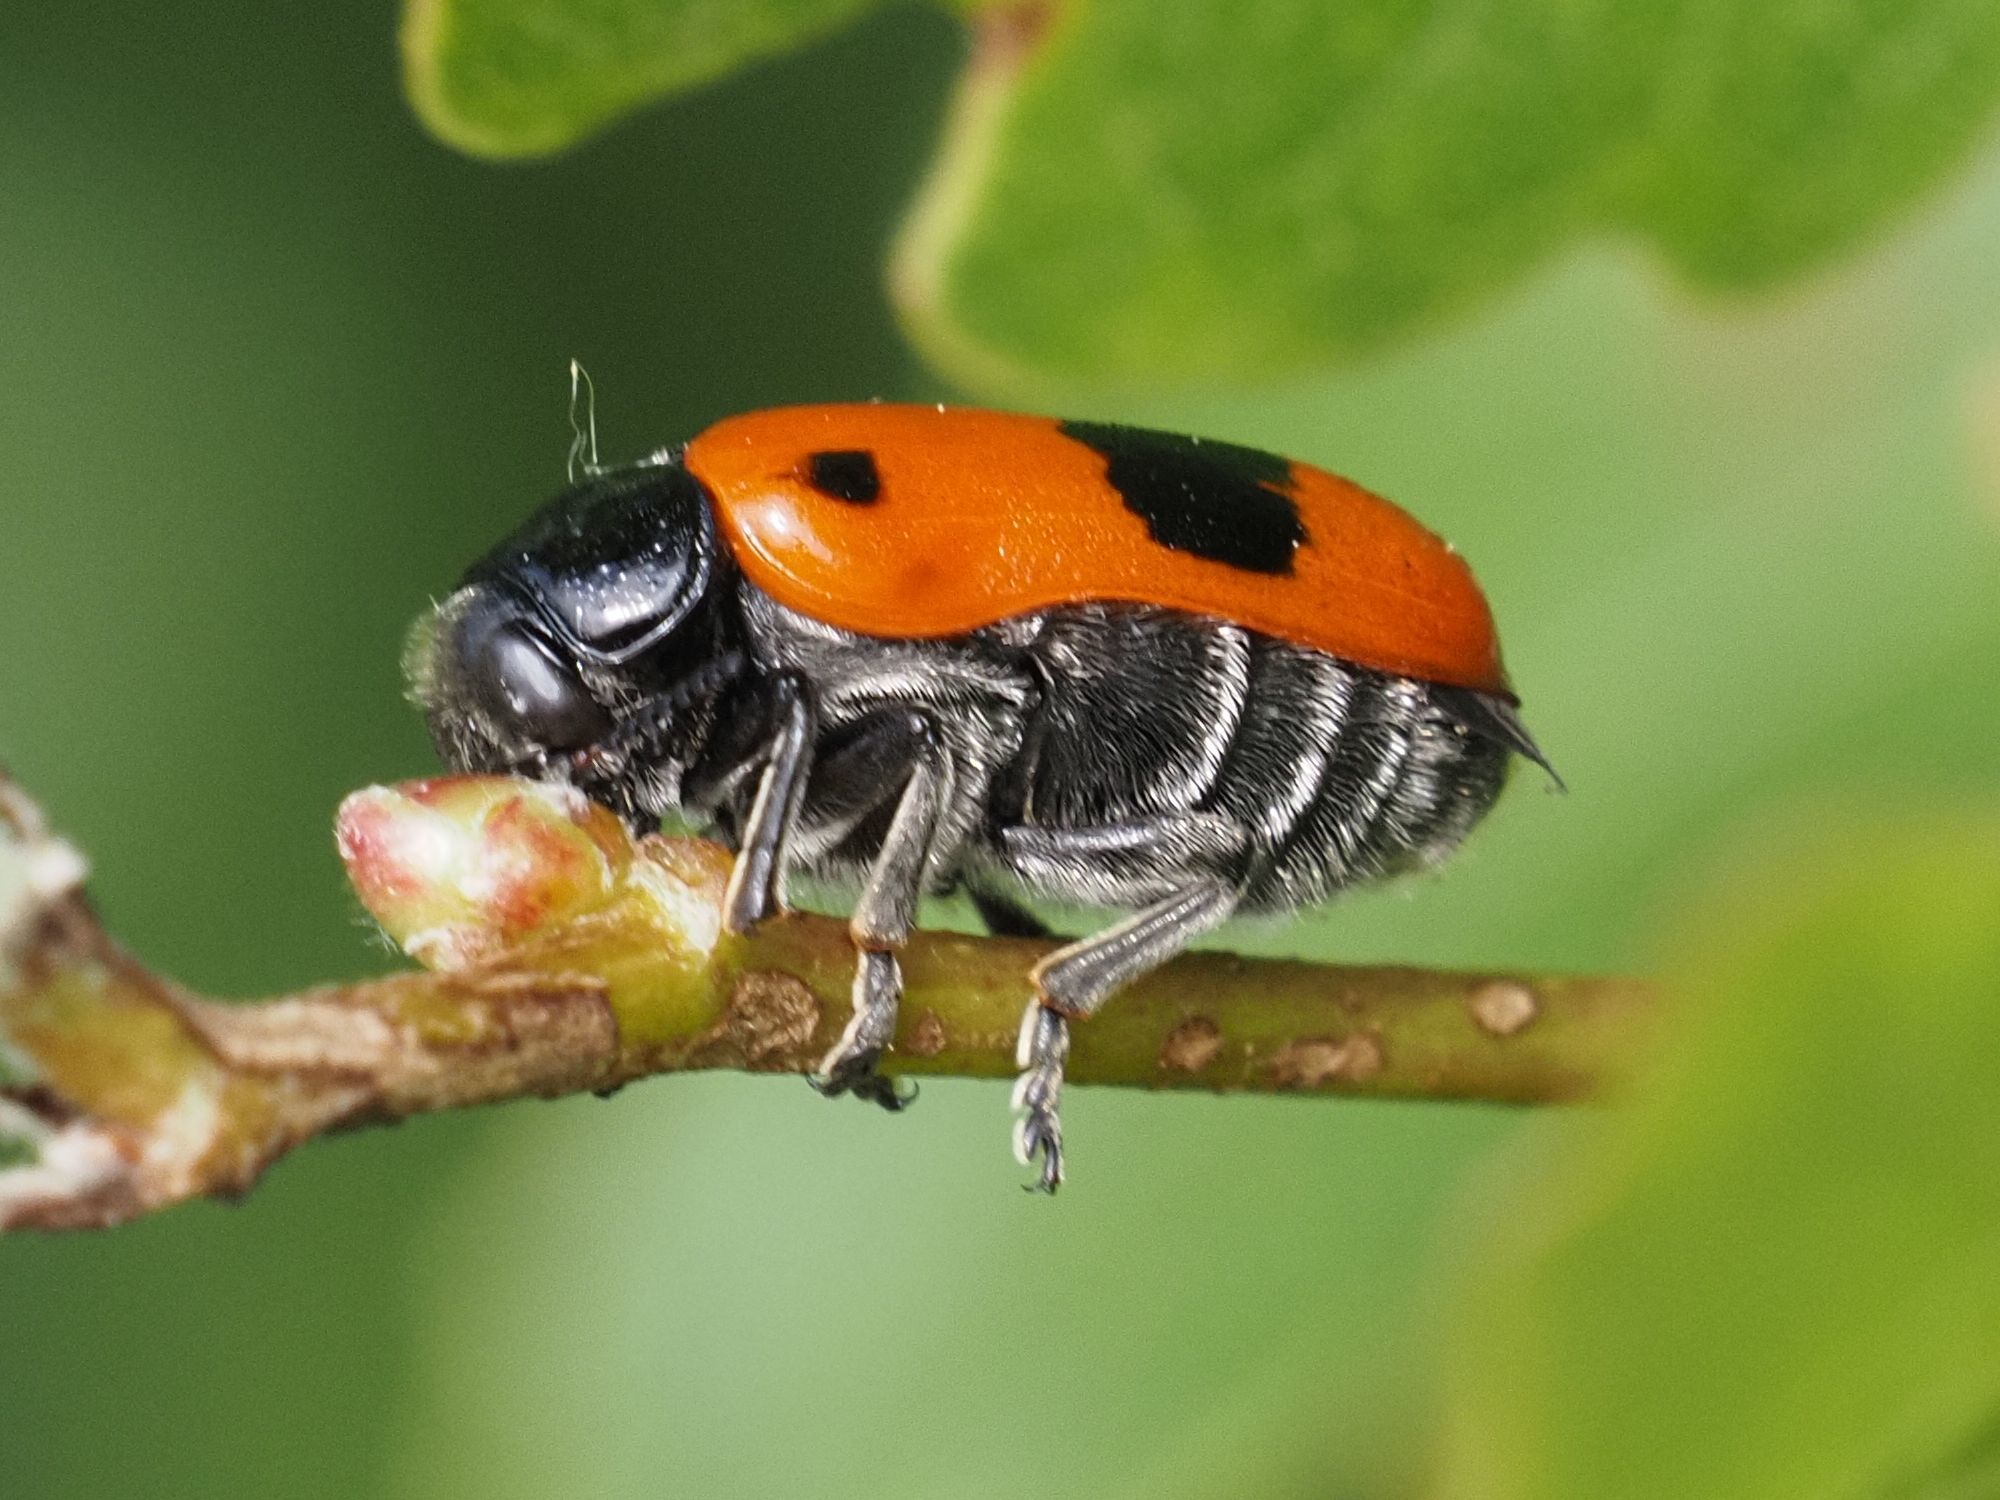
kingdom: Animalia
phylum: Arthropoda
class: Insecta
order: Coleoptera
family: Chrysomelidae
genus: Clytra
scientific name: Clytra laeviuscula
